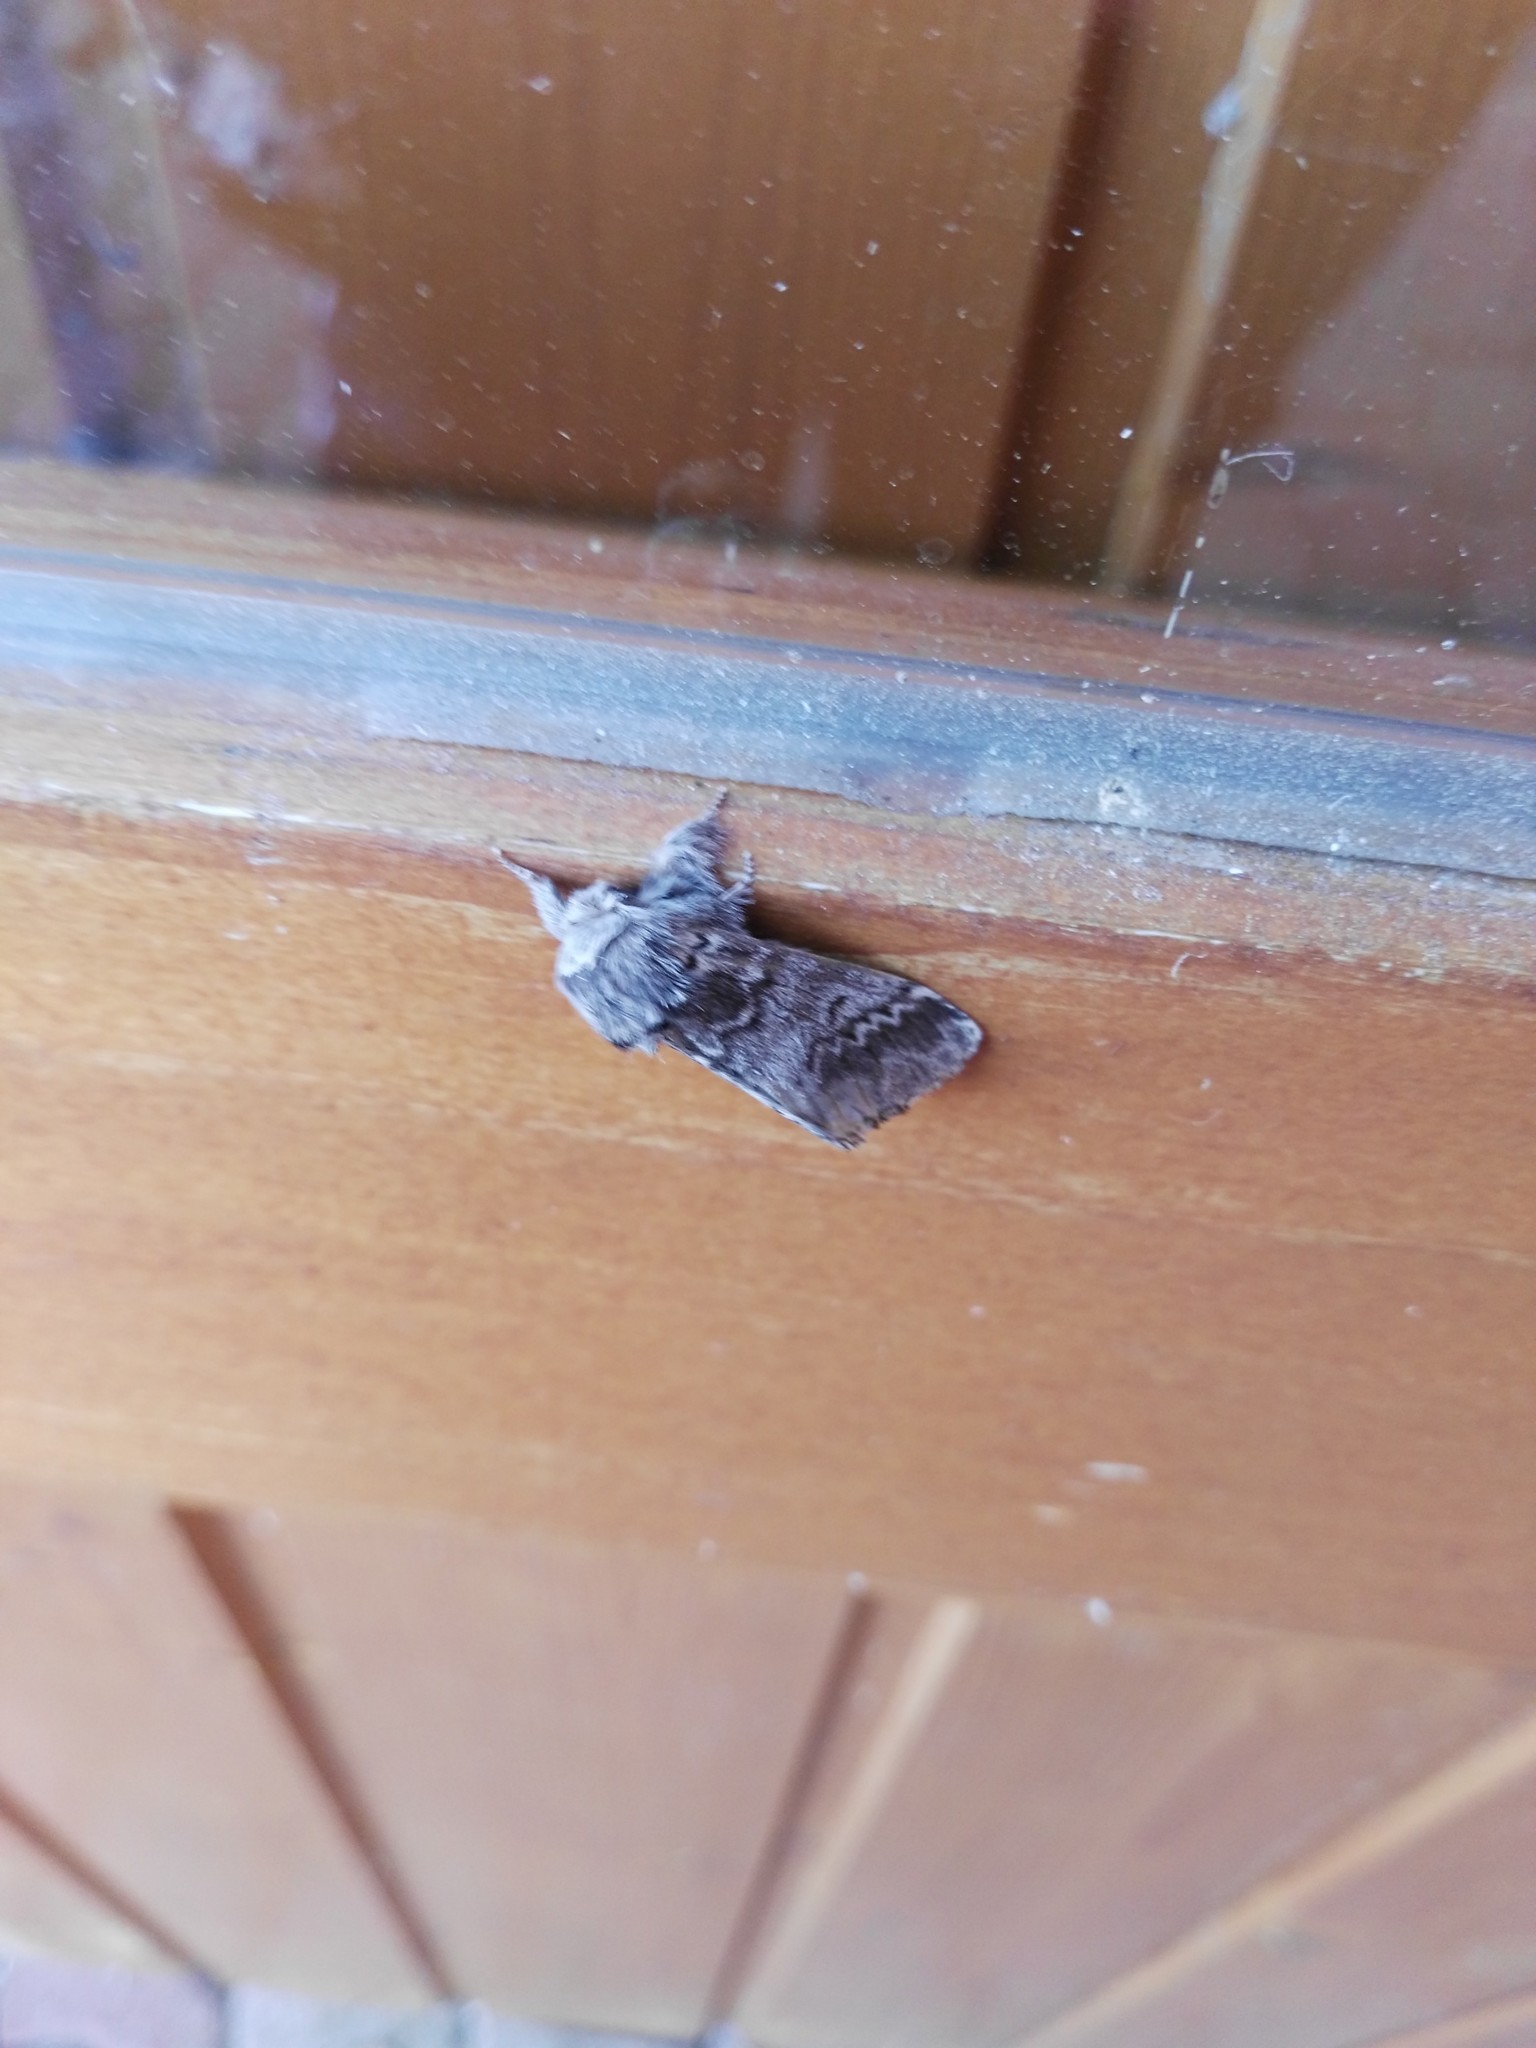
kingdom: Animalia
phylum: Arthropoda
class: Insecta
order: Lepidoptera
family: Notodontidae
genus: Drymonia
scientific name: Drymonia ruficornis
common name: Lunar marbled brown
